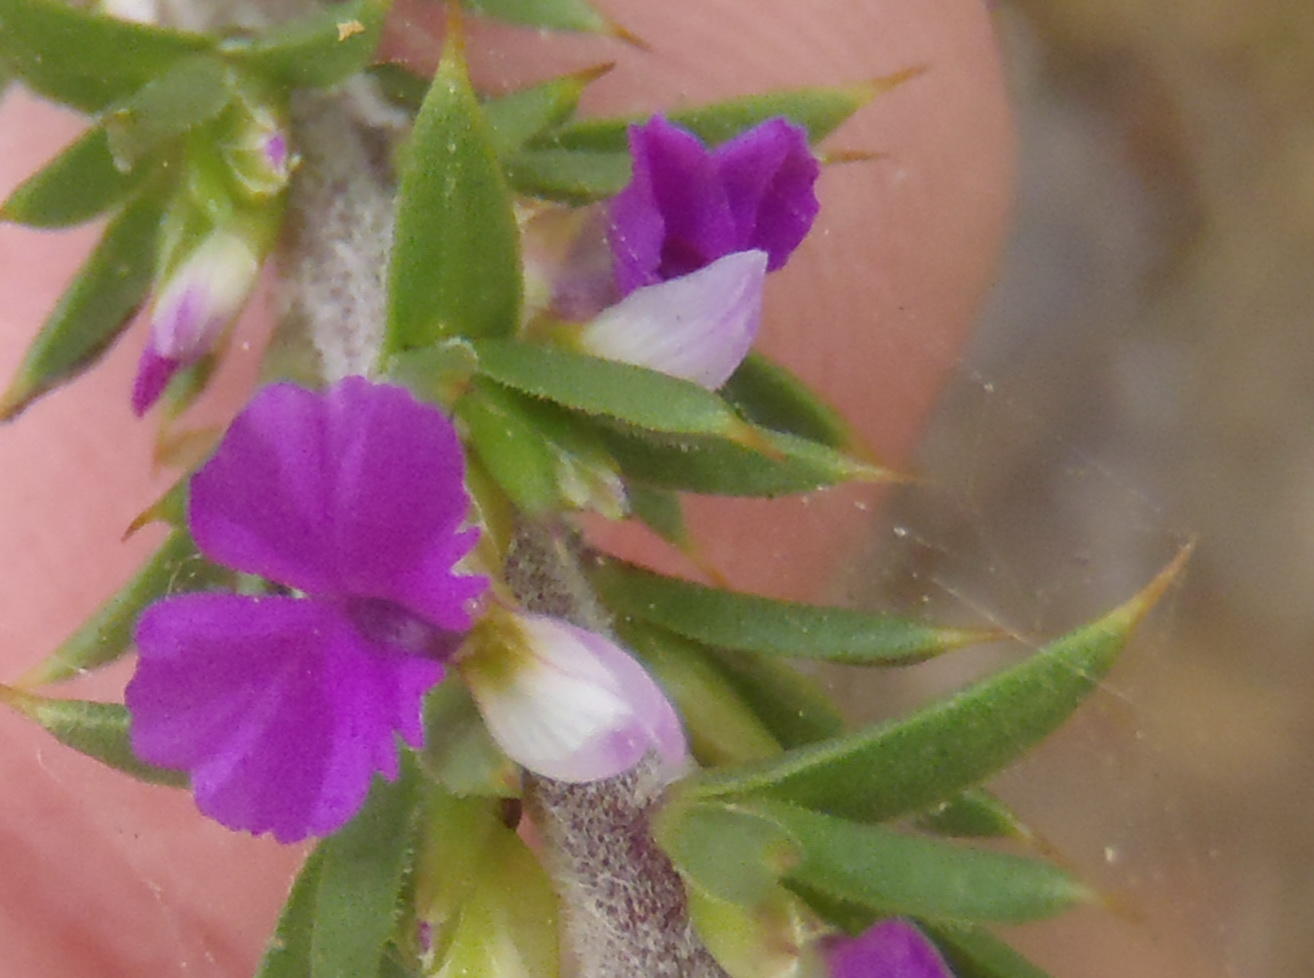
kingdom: Plantae
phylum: Tracheophyta
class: Magnoliopsida
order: Fabales
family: Polygalaceae
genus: Muraltia
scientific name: Muraltia heisteria
